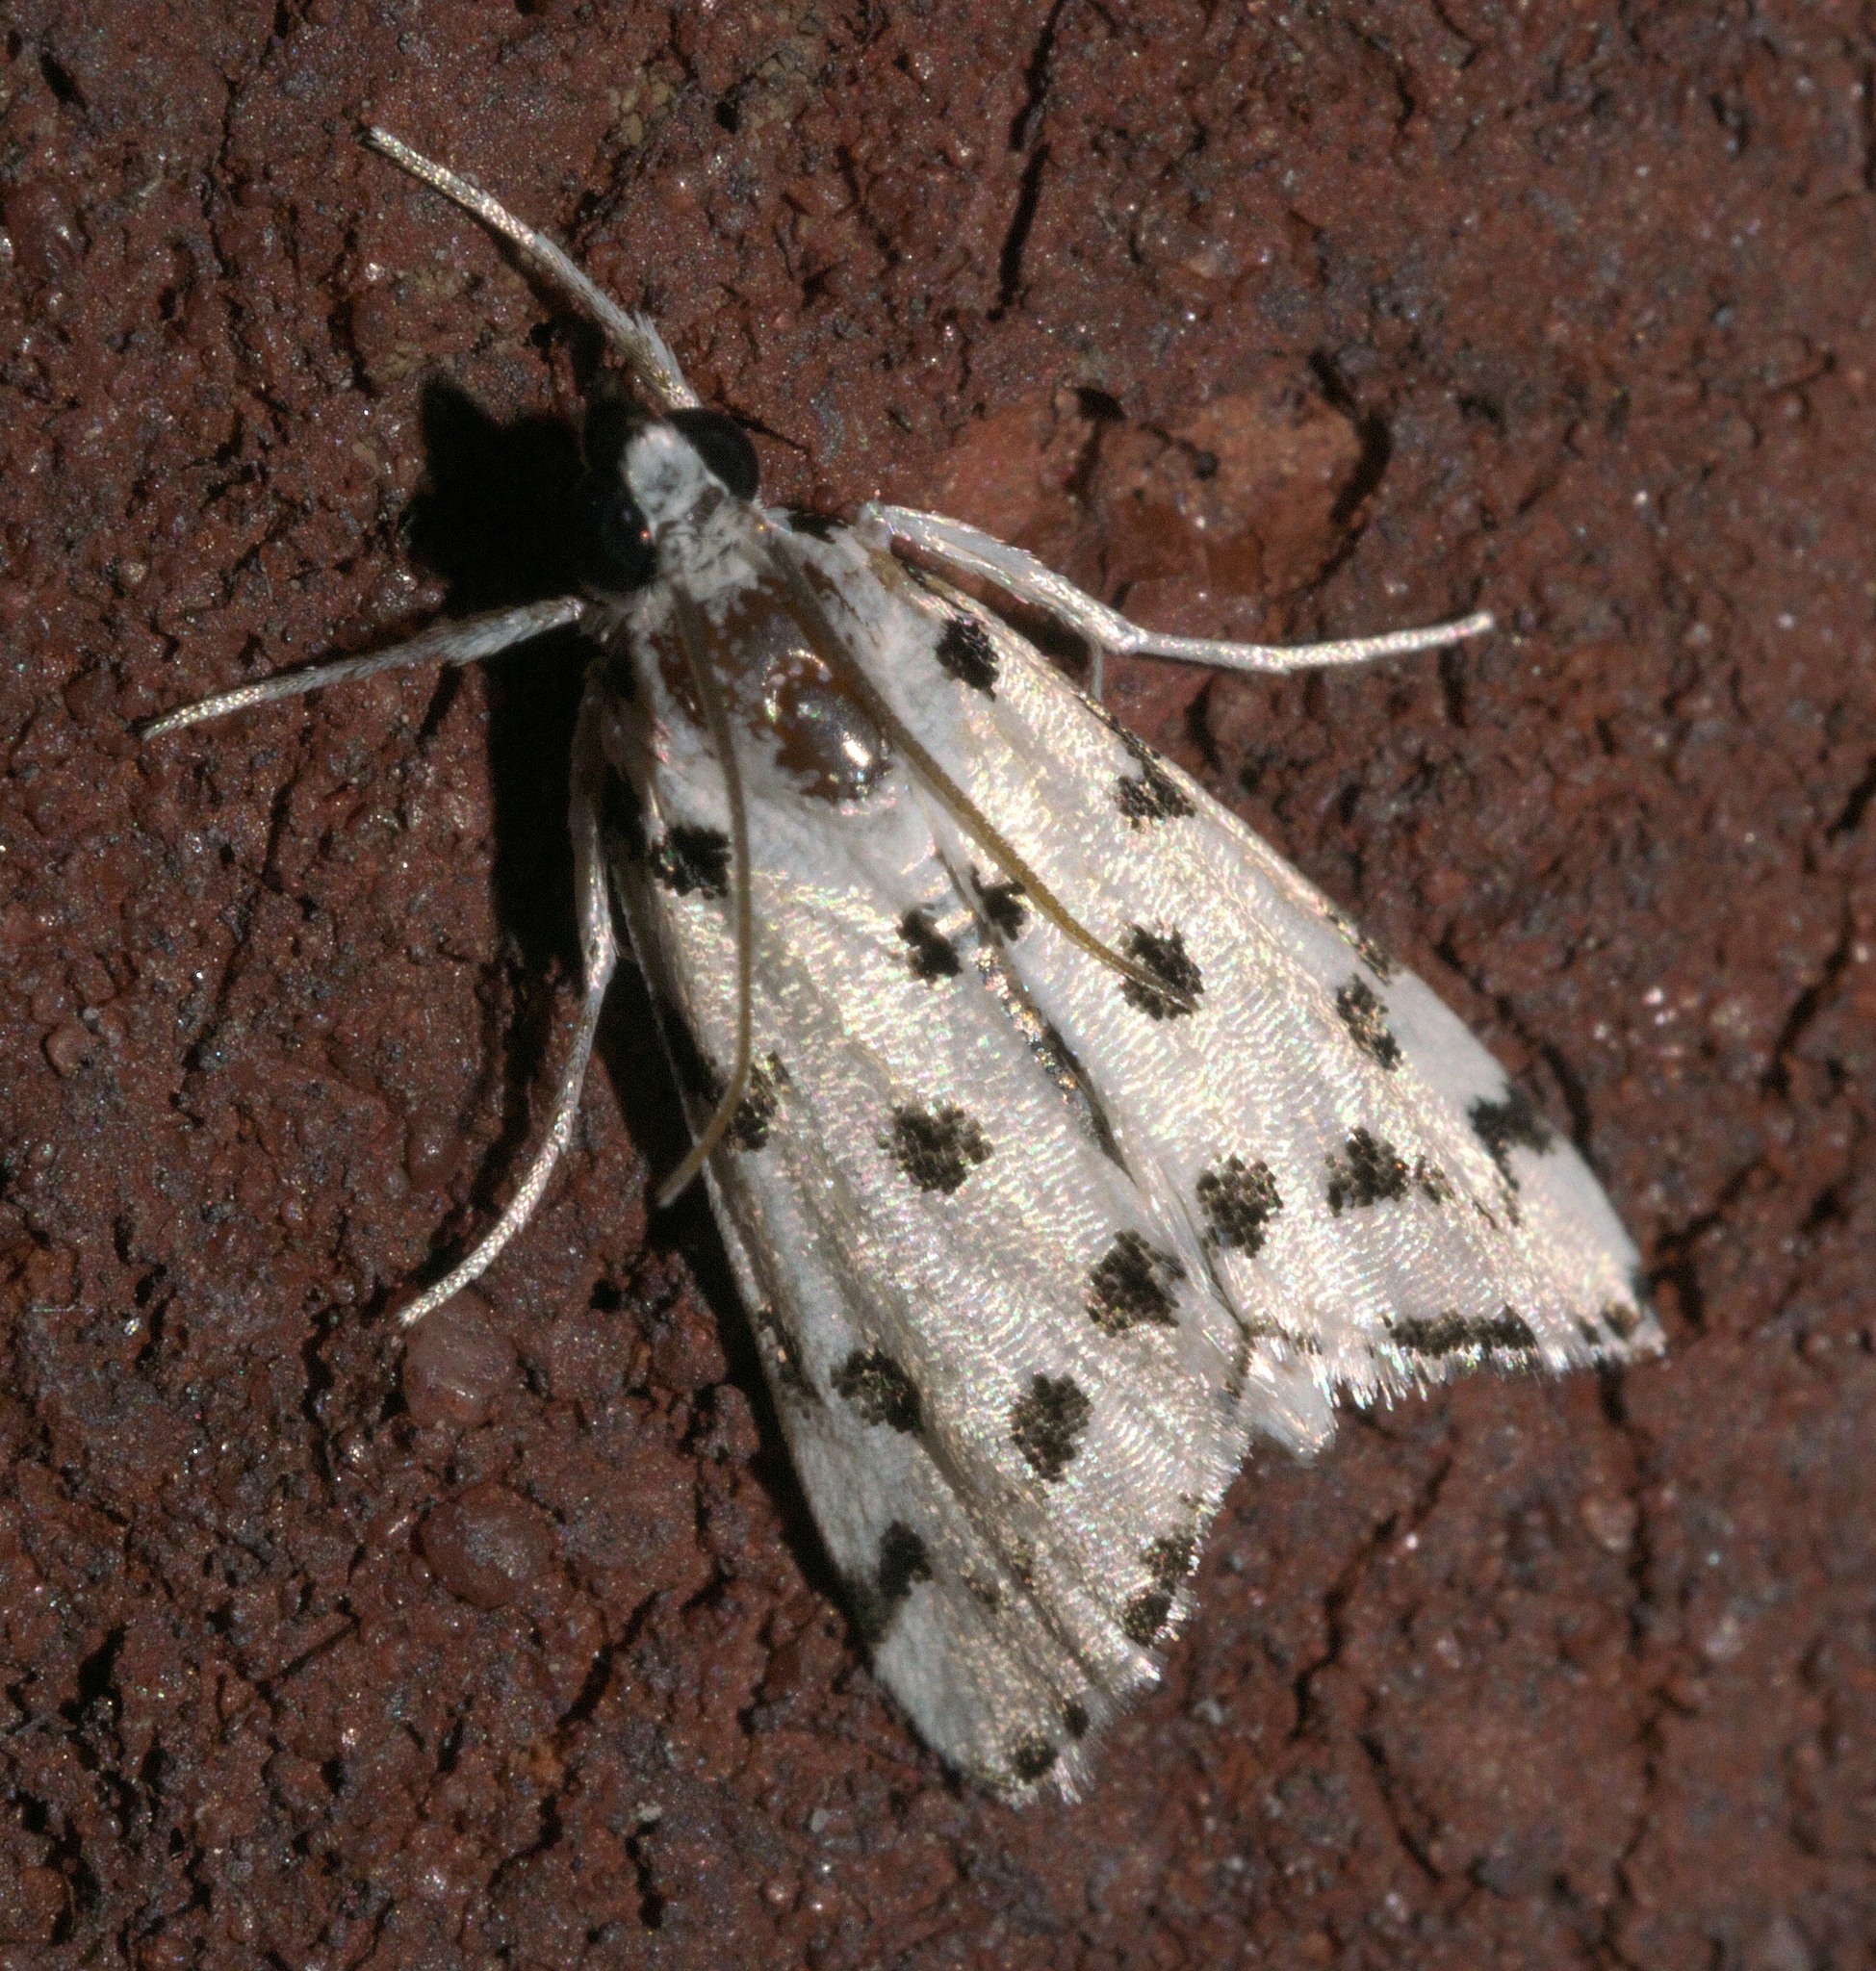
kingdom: Animalia
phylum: Arthropoda
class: Insecta
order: Lepidoptera
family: Crambidae
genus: Eustixia
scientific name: Eustixia pupula
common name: American cabbage pearl
